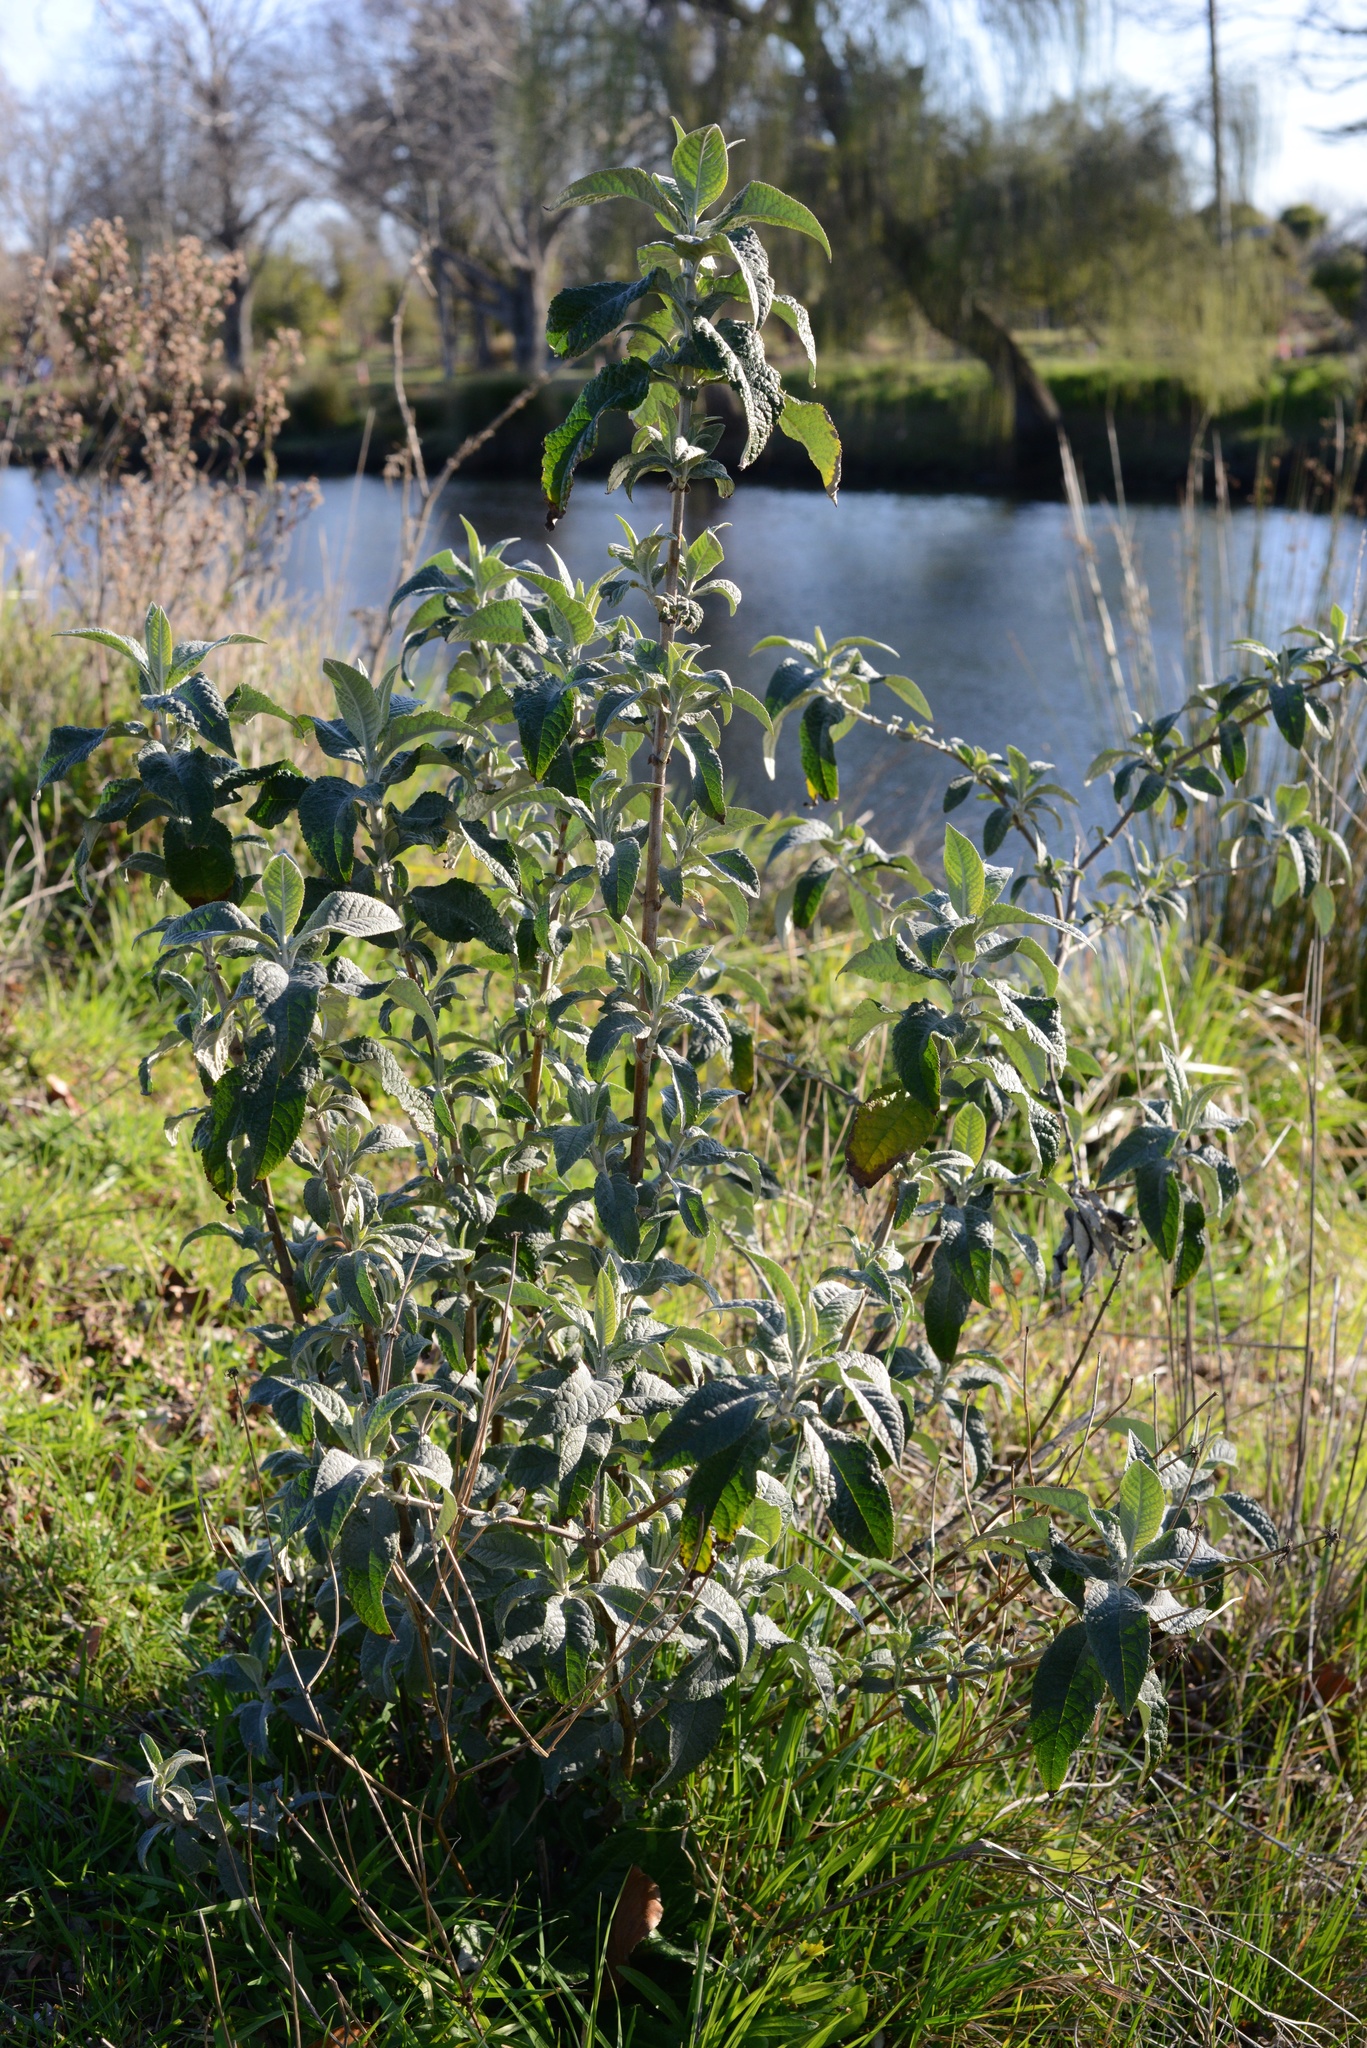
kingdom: Plantae
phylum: Tracheophyta
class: Magnoliopsida
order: Lamiales
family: Scrophulariaceae
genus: Buddleja
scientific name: Buddleja davidii
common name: Butterfly-bush
